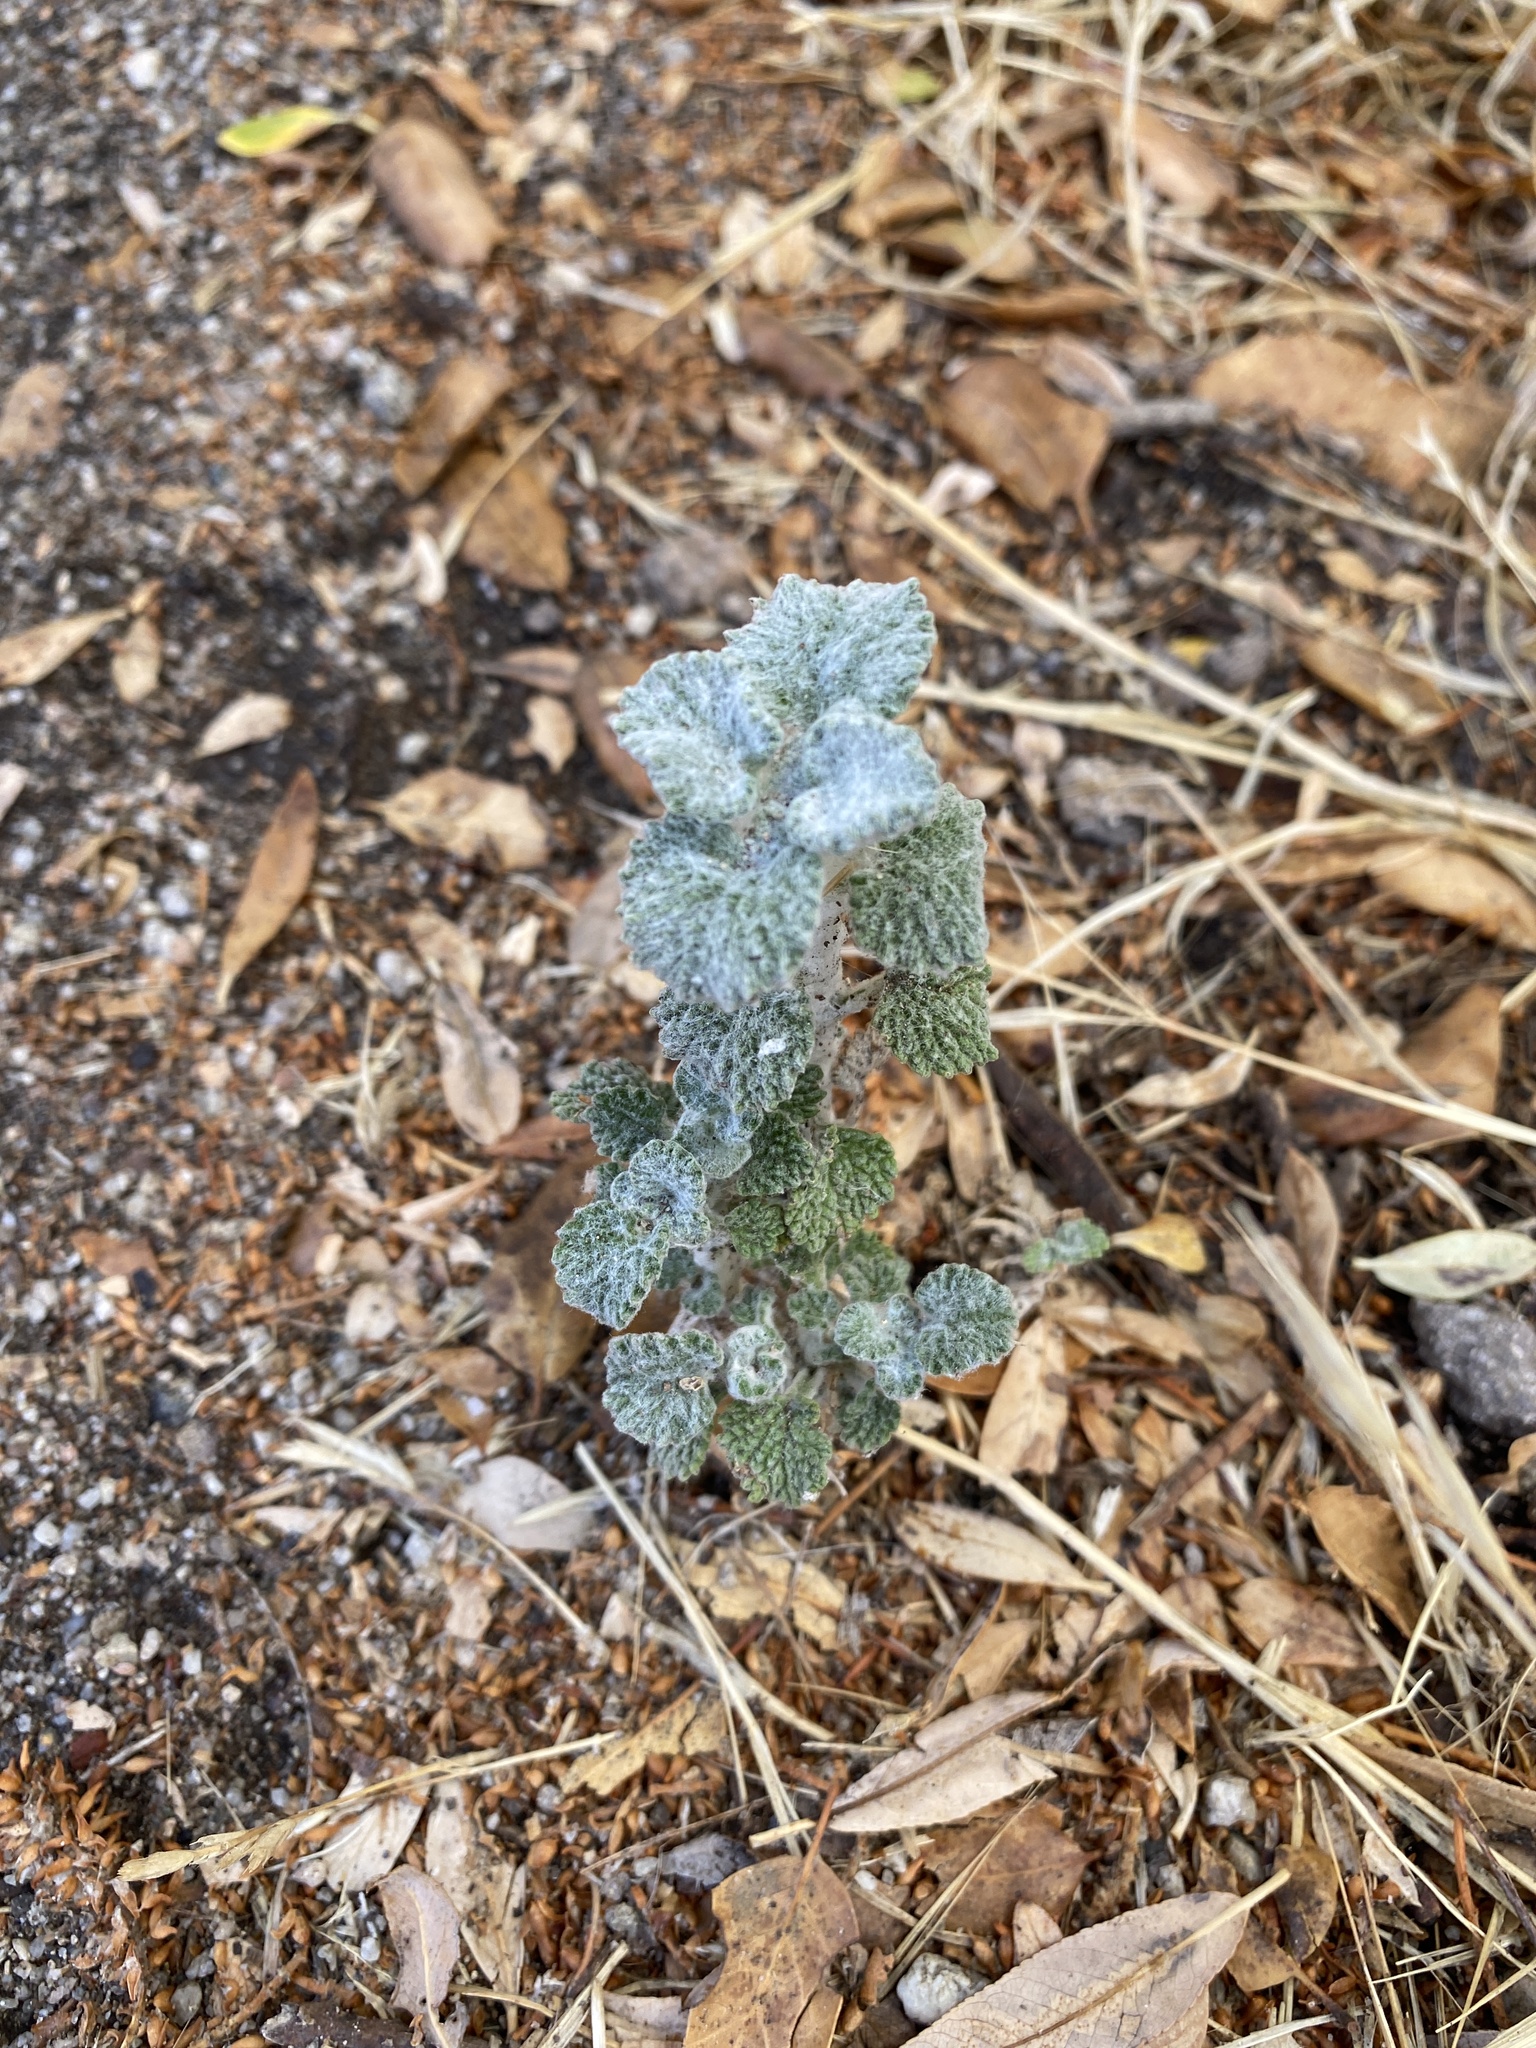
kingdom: Plantae
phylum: Tracheophyta
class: Magnoliopsida
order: Lamiales
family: Lamiaceae
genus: Marrubium
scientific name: Marrubium vulgare
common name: Horehound
